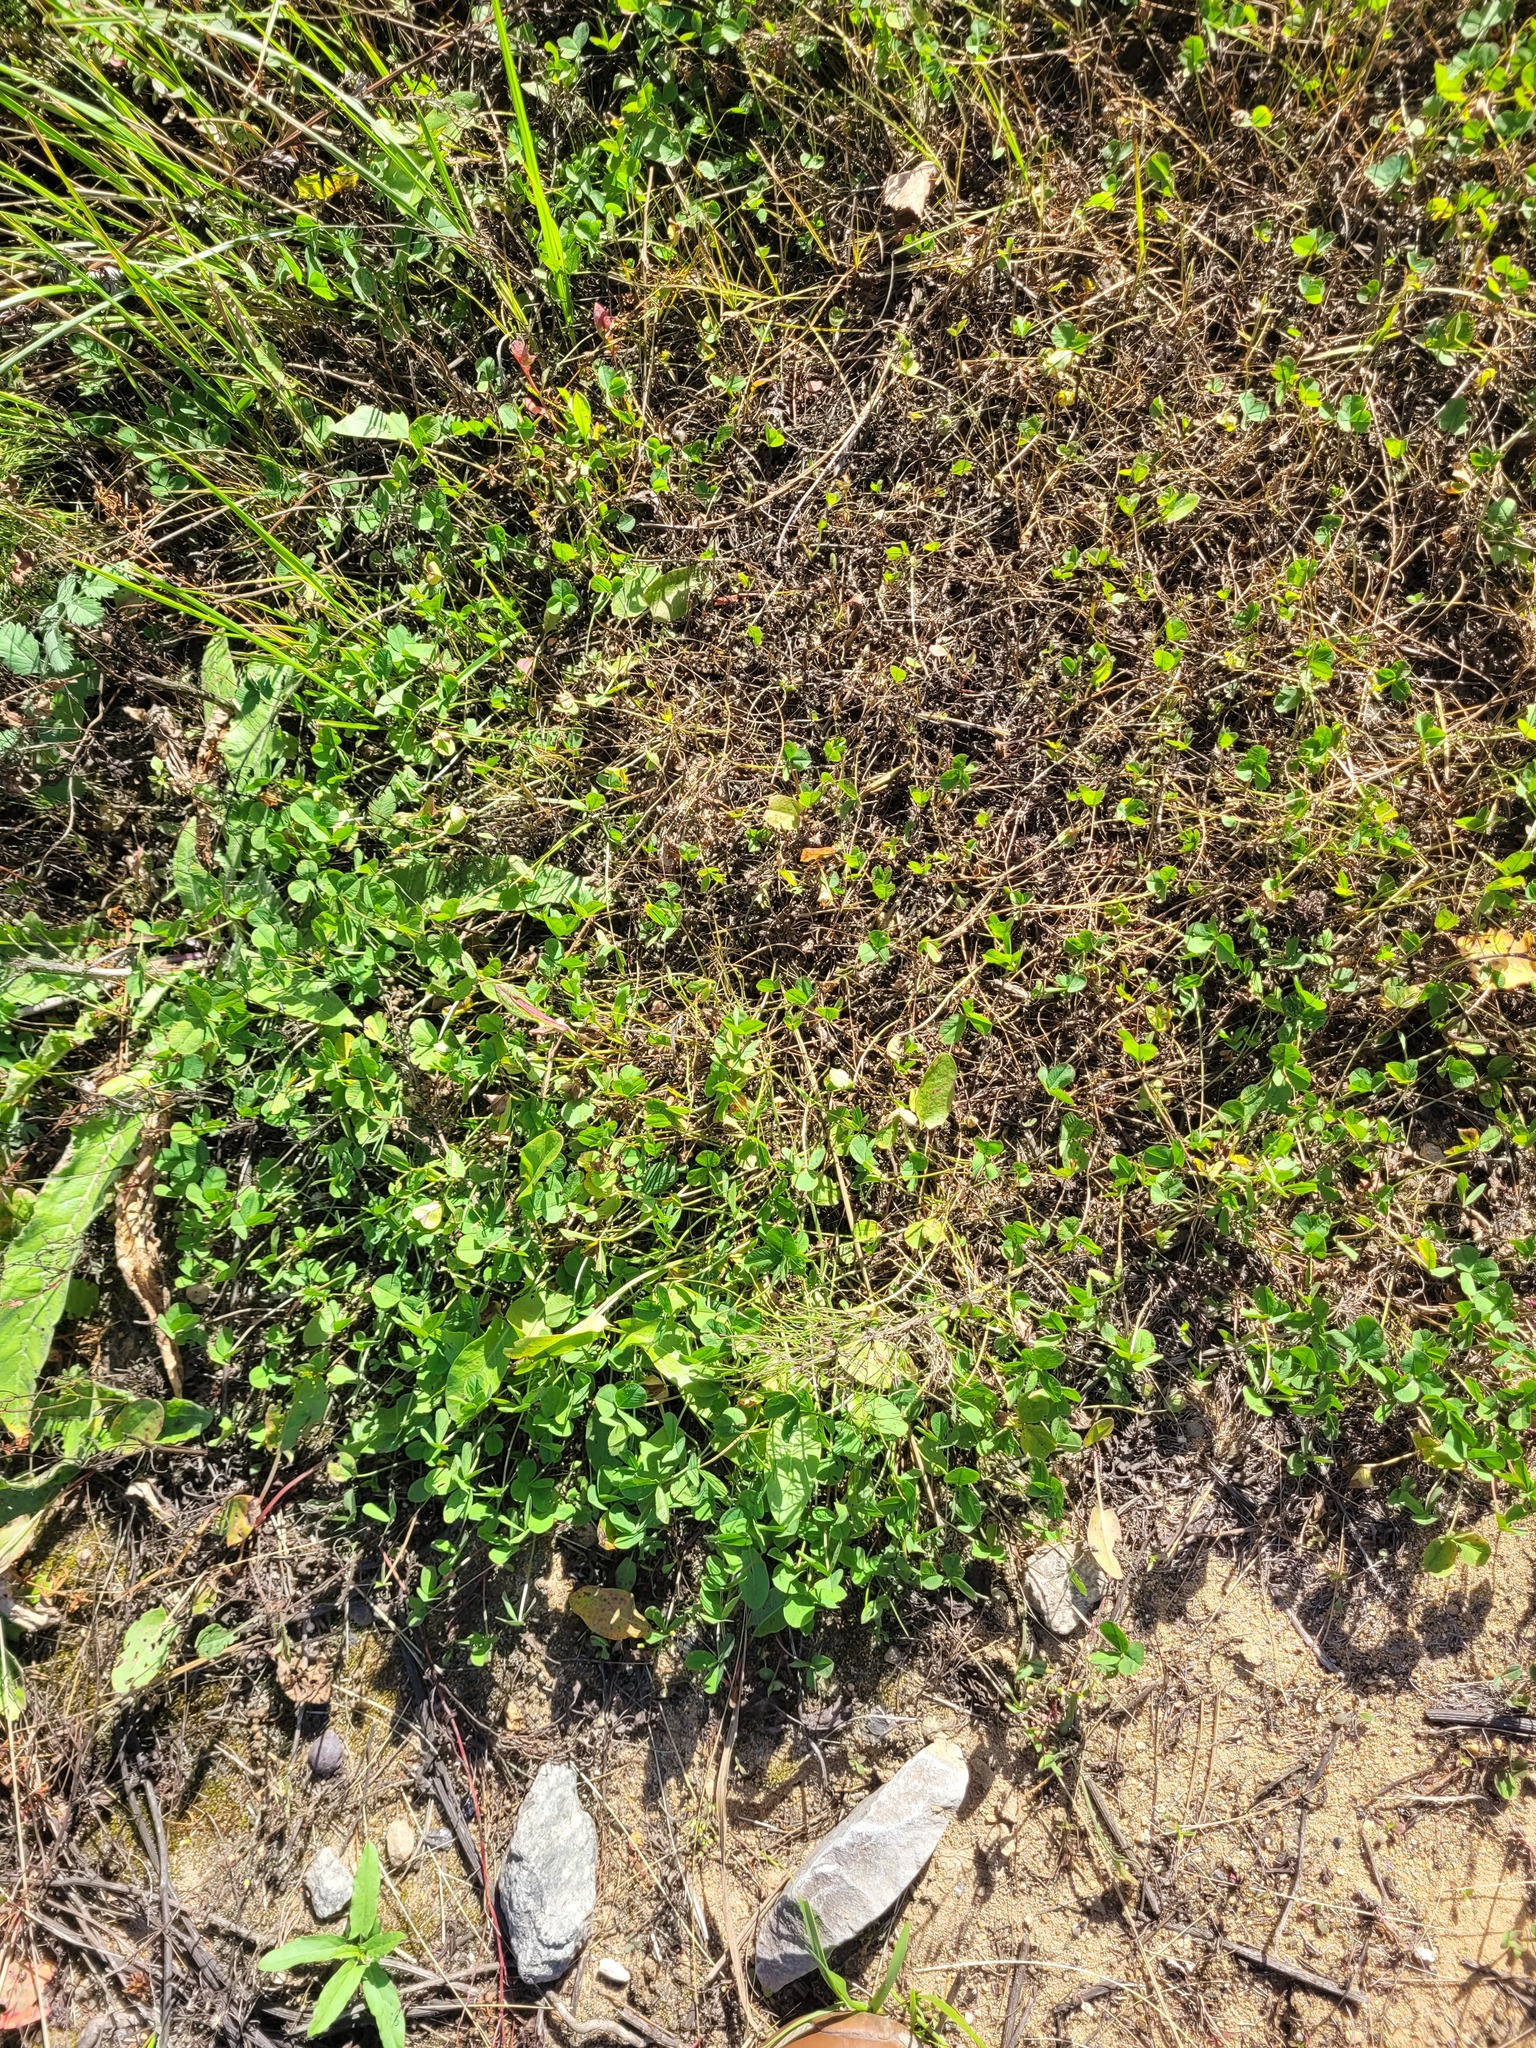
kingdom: Plantae
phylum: Tracheophyta
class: Magnoliopsida
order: Fabales
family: Fabaceae
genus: Trifolium
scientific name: Trifolium repens
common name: White clover
